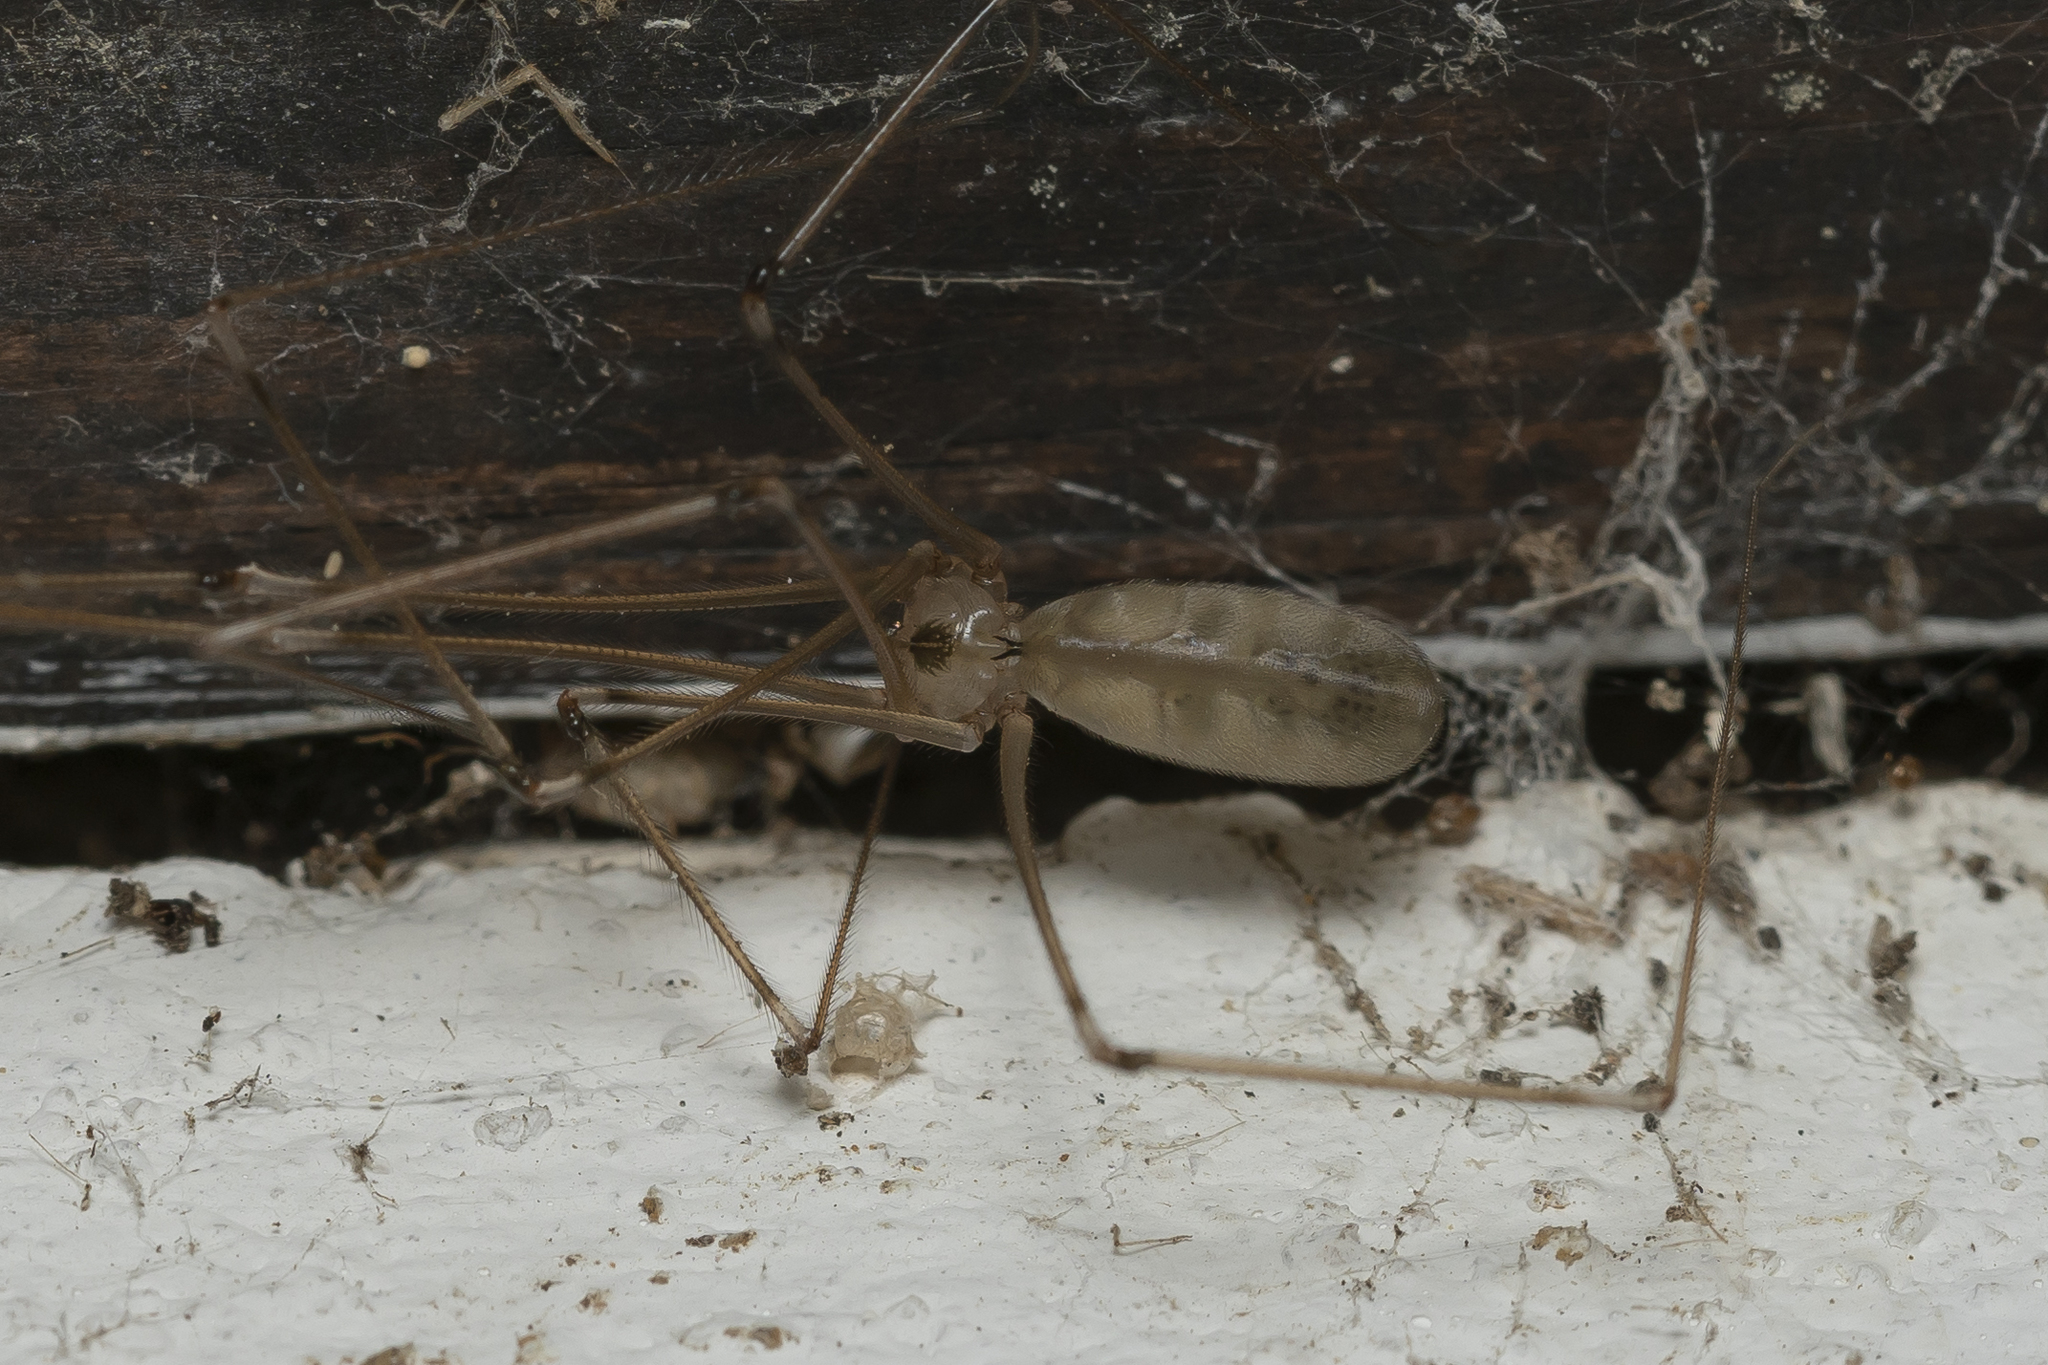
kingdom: Animalia
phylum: Arthropoda
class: Arachnida
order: Araneae
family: Pholcidae
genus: Pholcus
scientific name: Pholcus phalangioides
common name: Longbodied cellar spider
